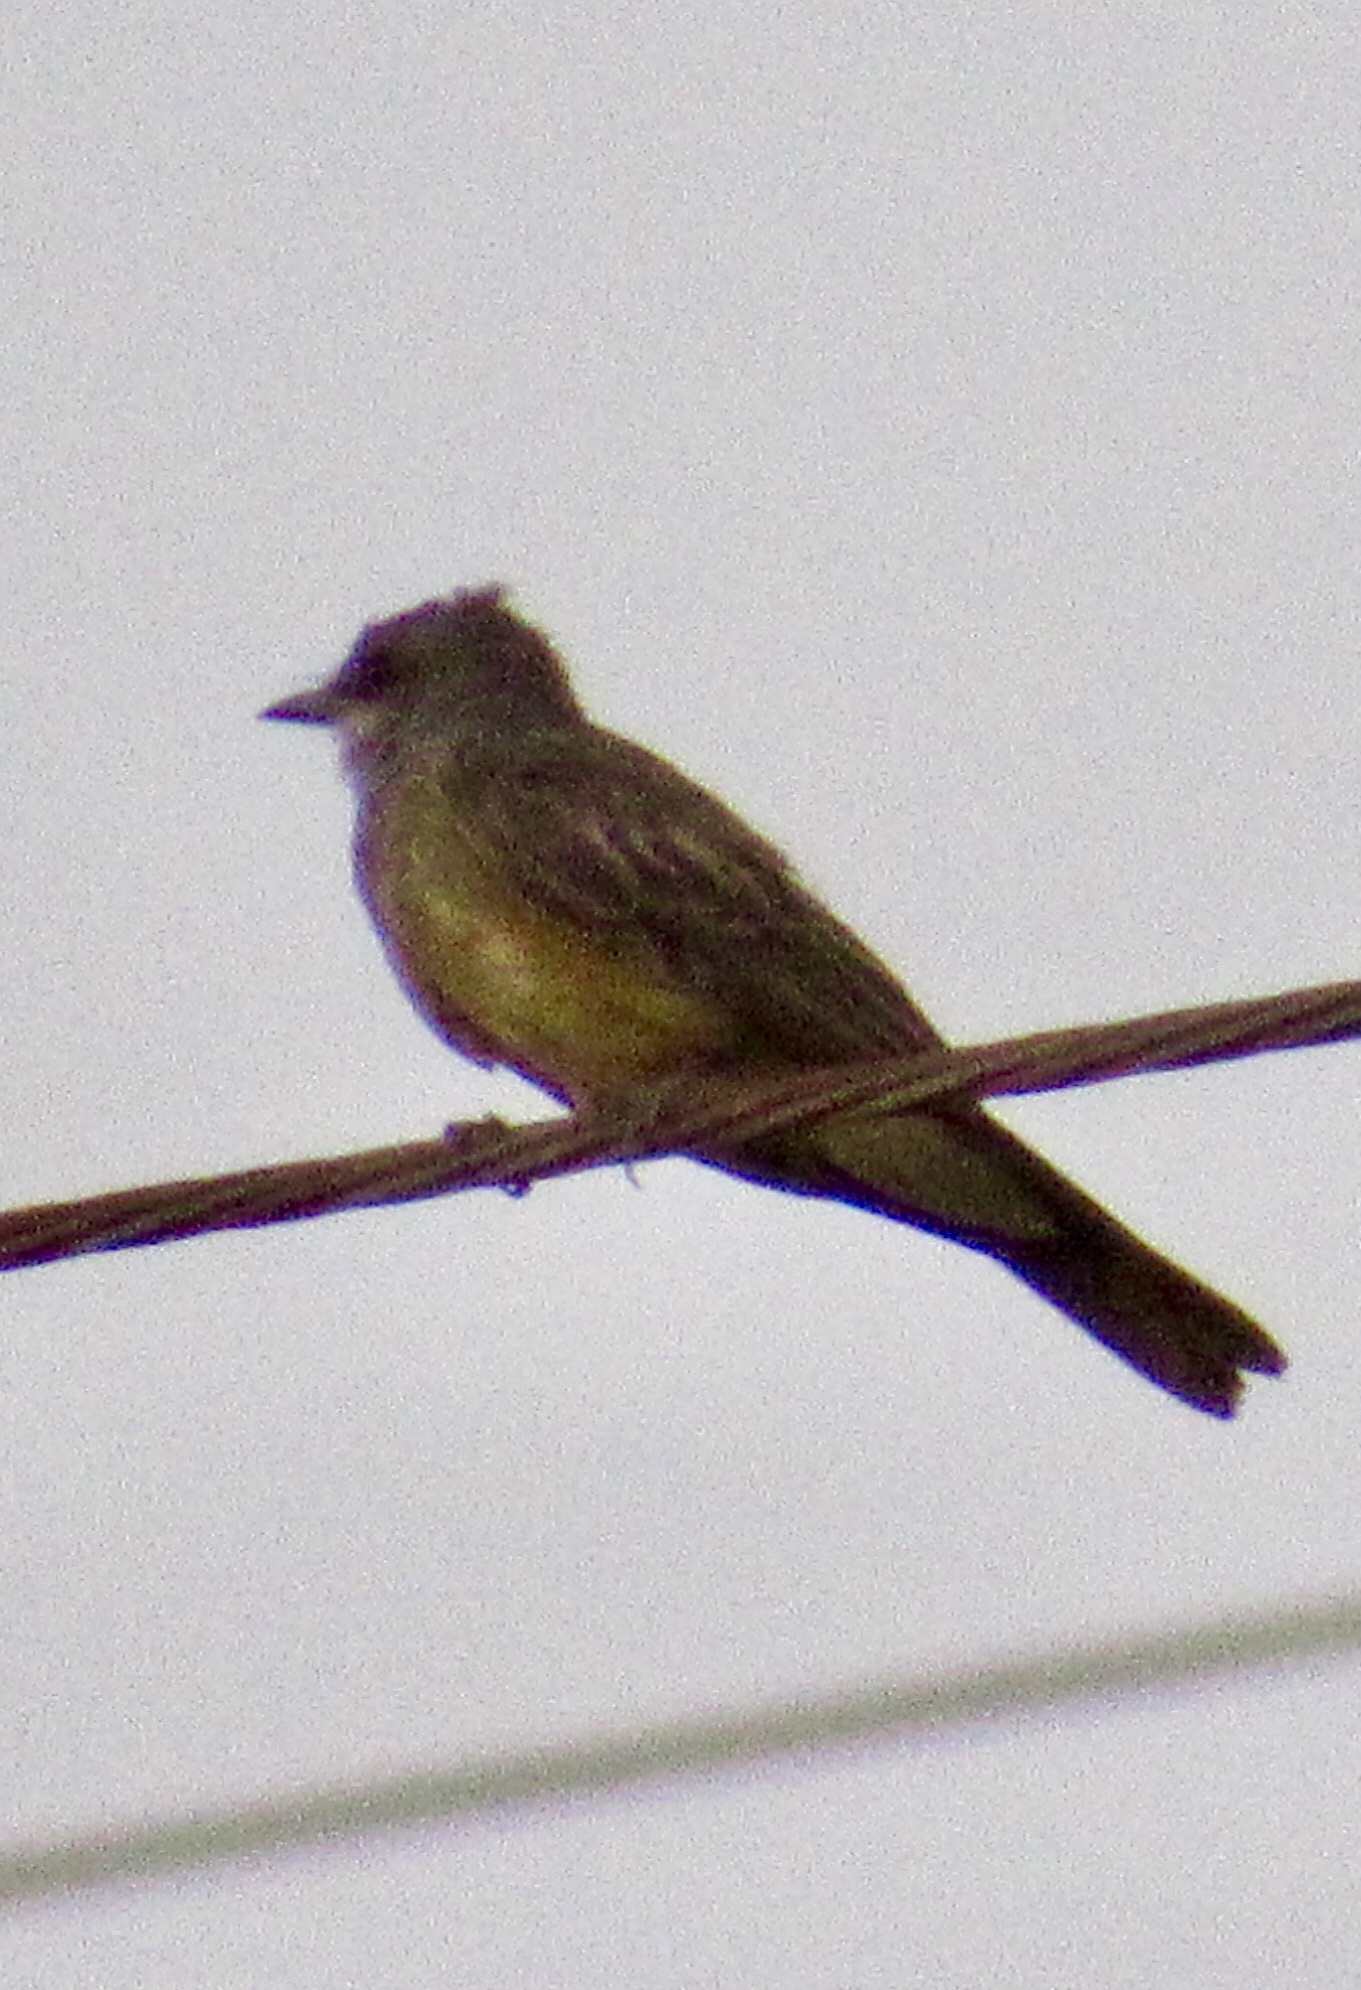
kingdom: Animalia
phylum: Chordata
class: Aves
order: Passeriformes
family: Tyrannidae
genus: Tyrannus
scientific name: Tyrannus vociferans
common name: Cassin's kingbird
